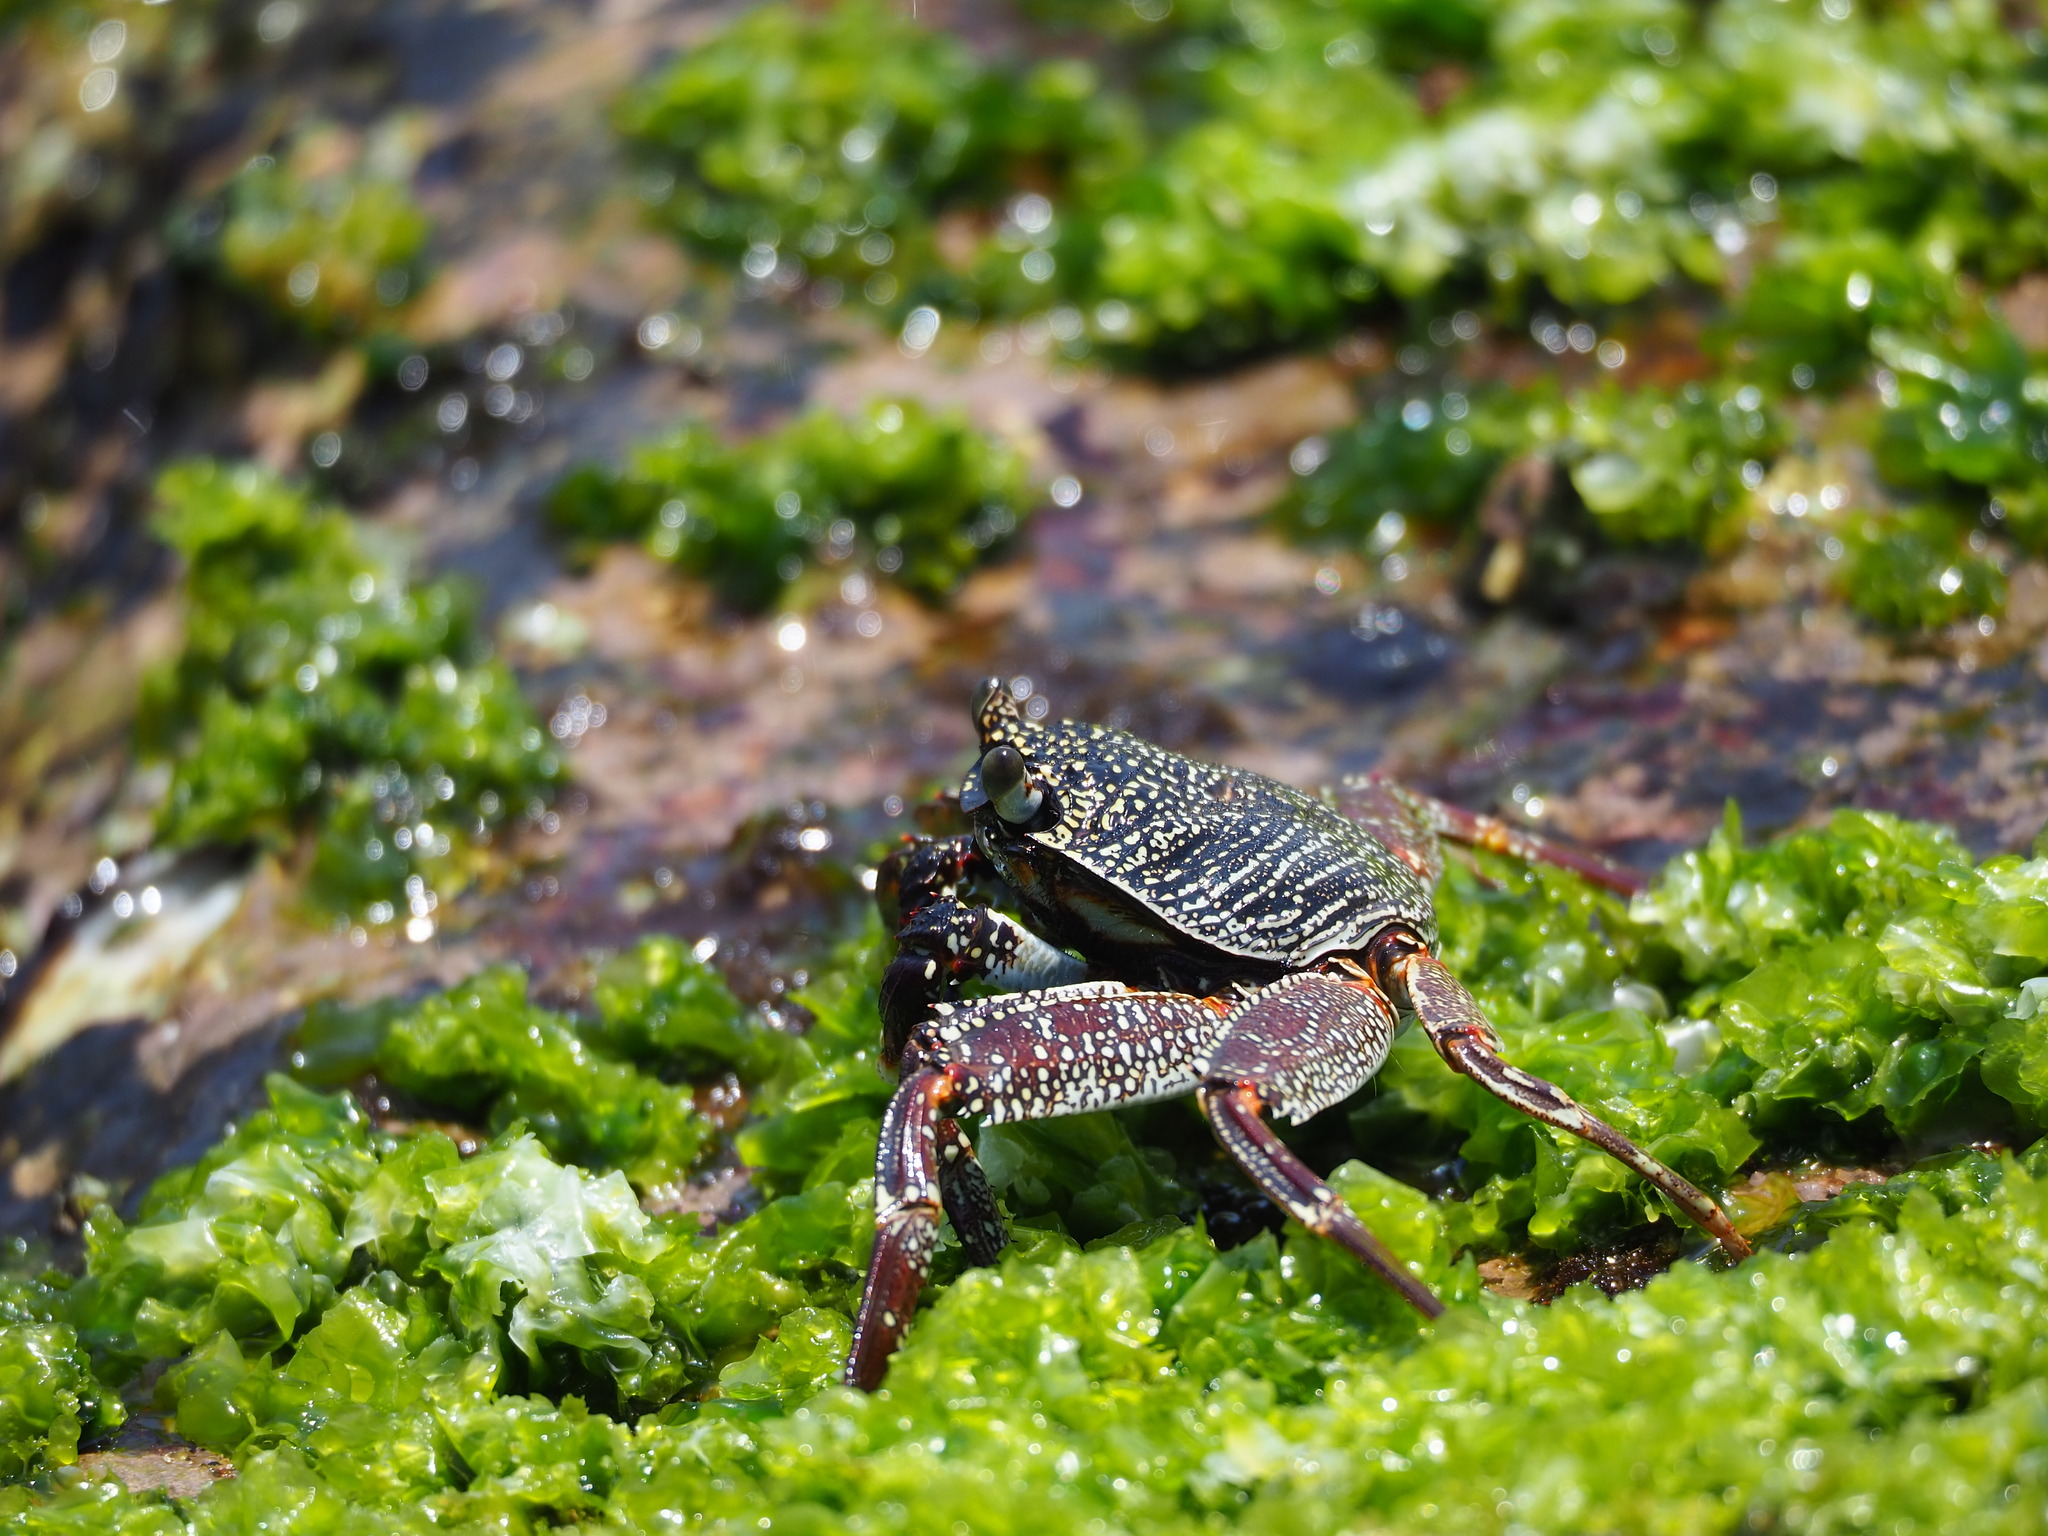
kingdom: Animalia
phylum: Arthropoda
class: Malacostraca
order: Decapoda
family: Grapsidae
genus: Grapsus
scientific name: Grapsus tenuicrustatus
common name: Natal lightfoot crab
